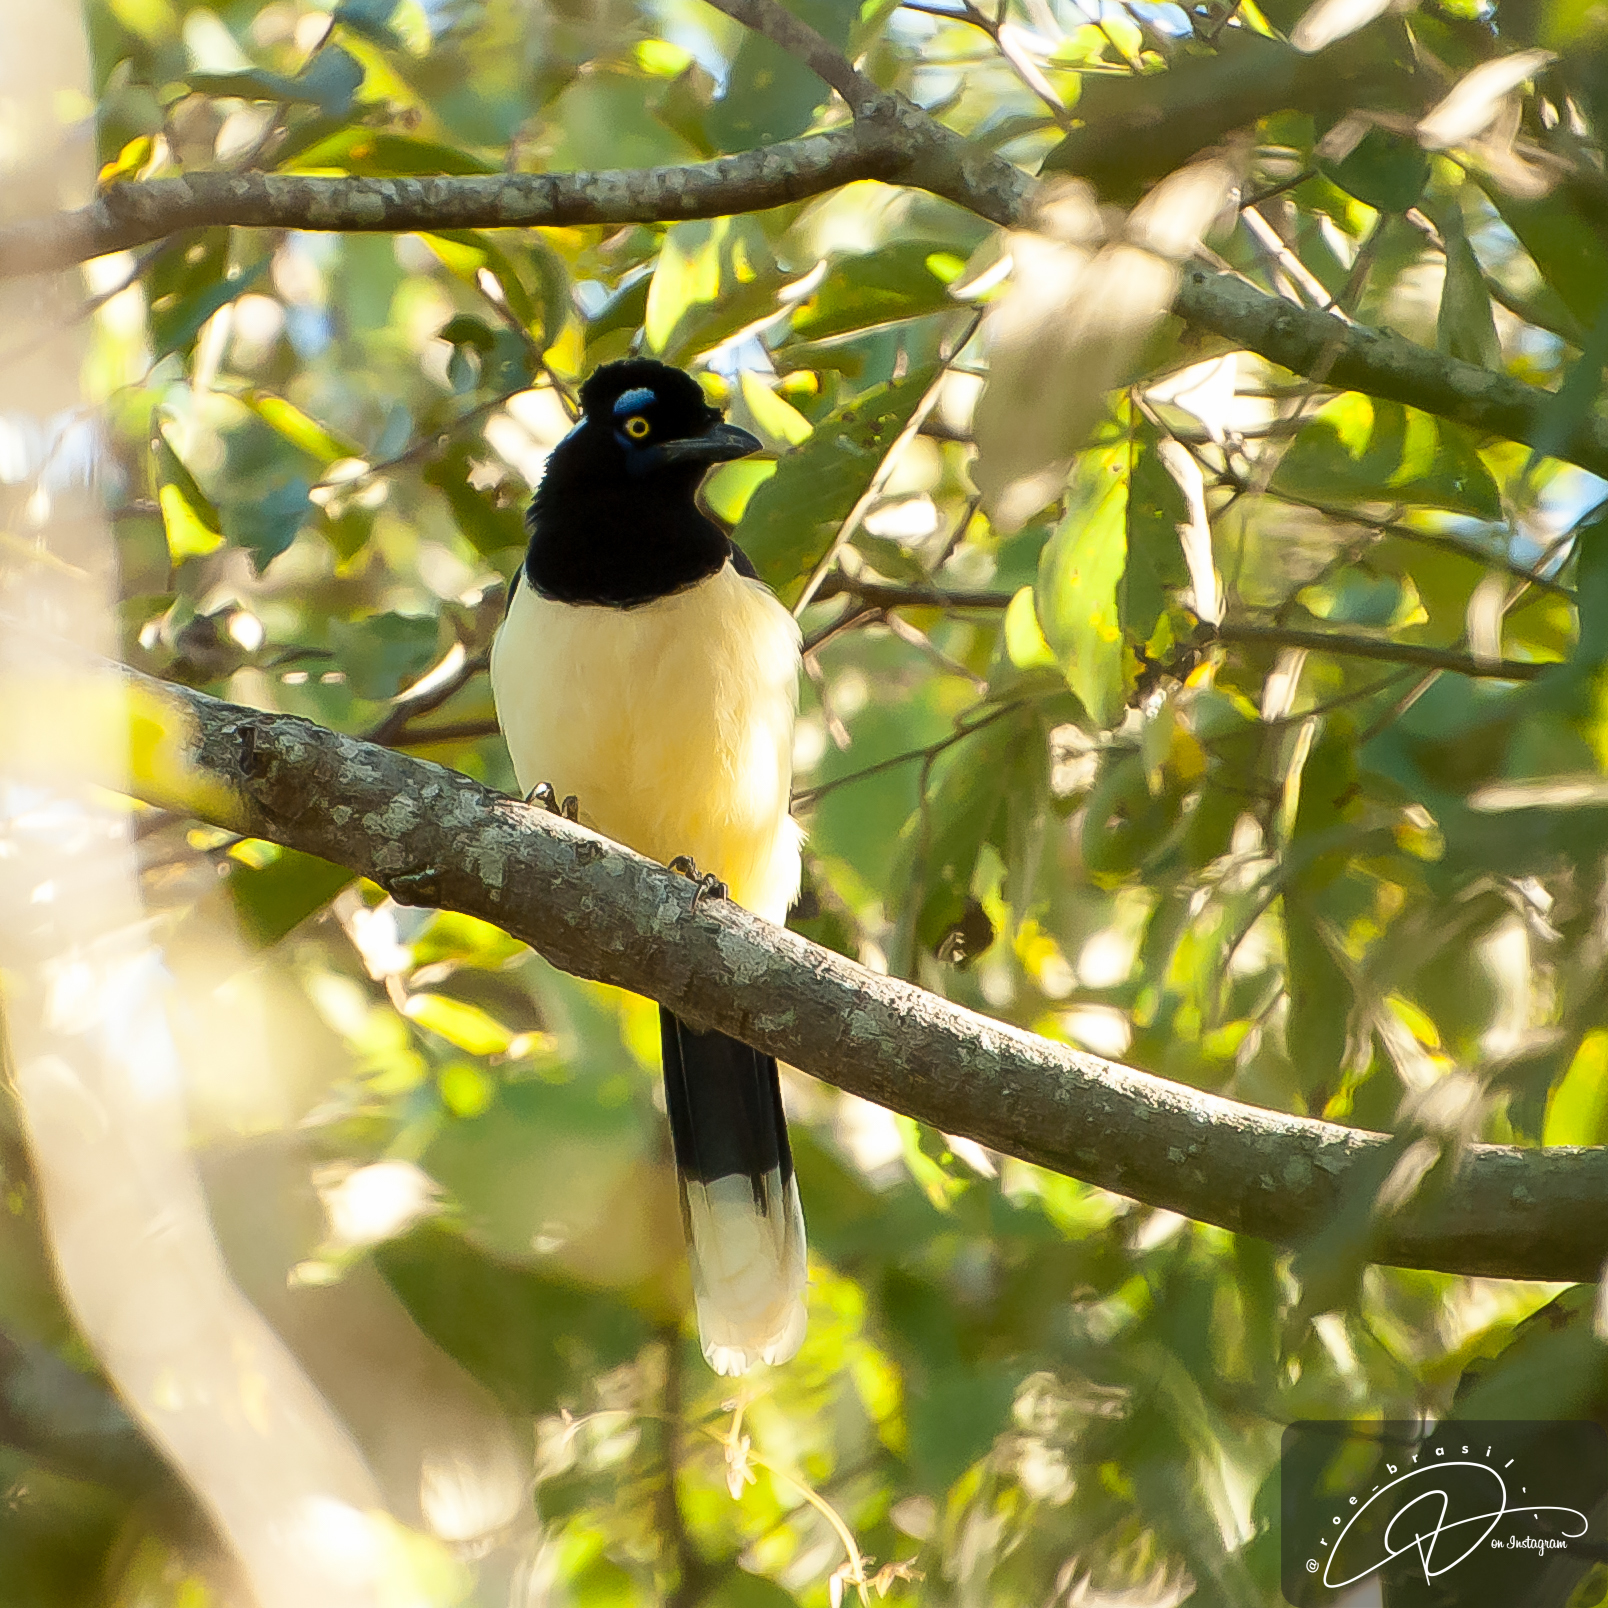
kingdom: Animalia
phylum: Chordata
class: Aves
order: Passeriformes
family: Corvidae
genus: Cyanocorax
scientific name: Cyanocorax chrysops
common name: Plush-crested jay
